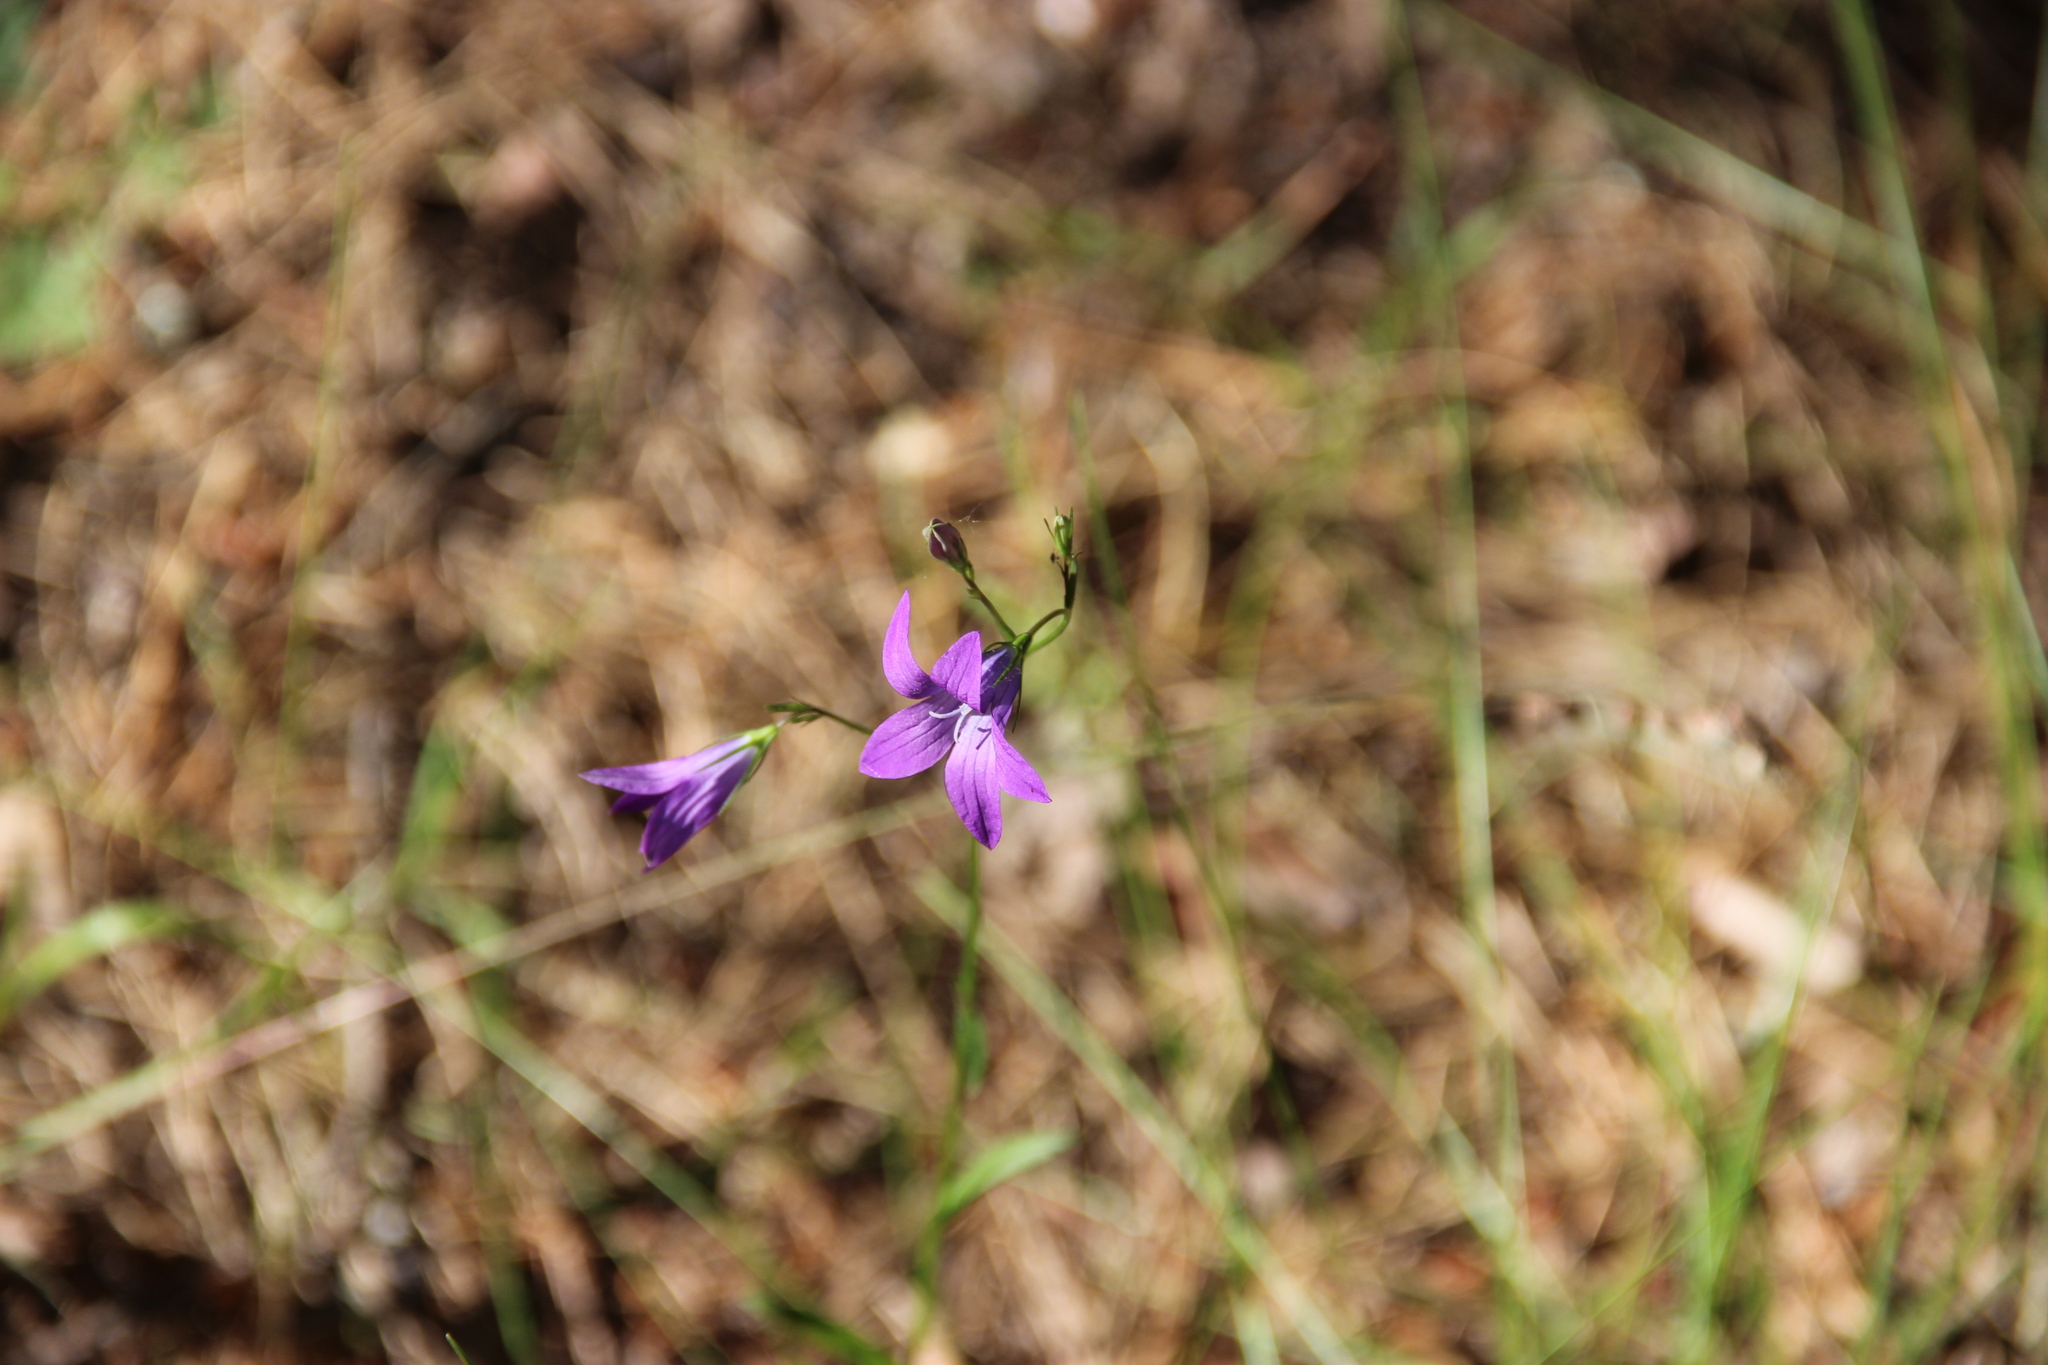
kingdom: Plantae
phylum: Tracheophyta
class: Magnoliopsida
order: Asterales
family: Campanulaceae
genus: Campanula
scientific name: Campanula patula
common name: Spreading bellflower
